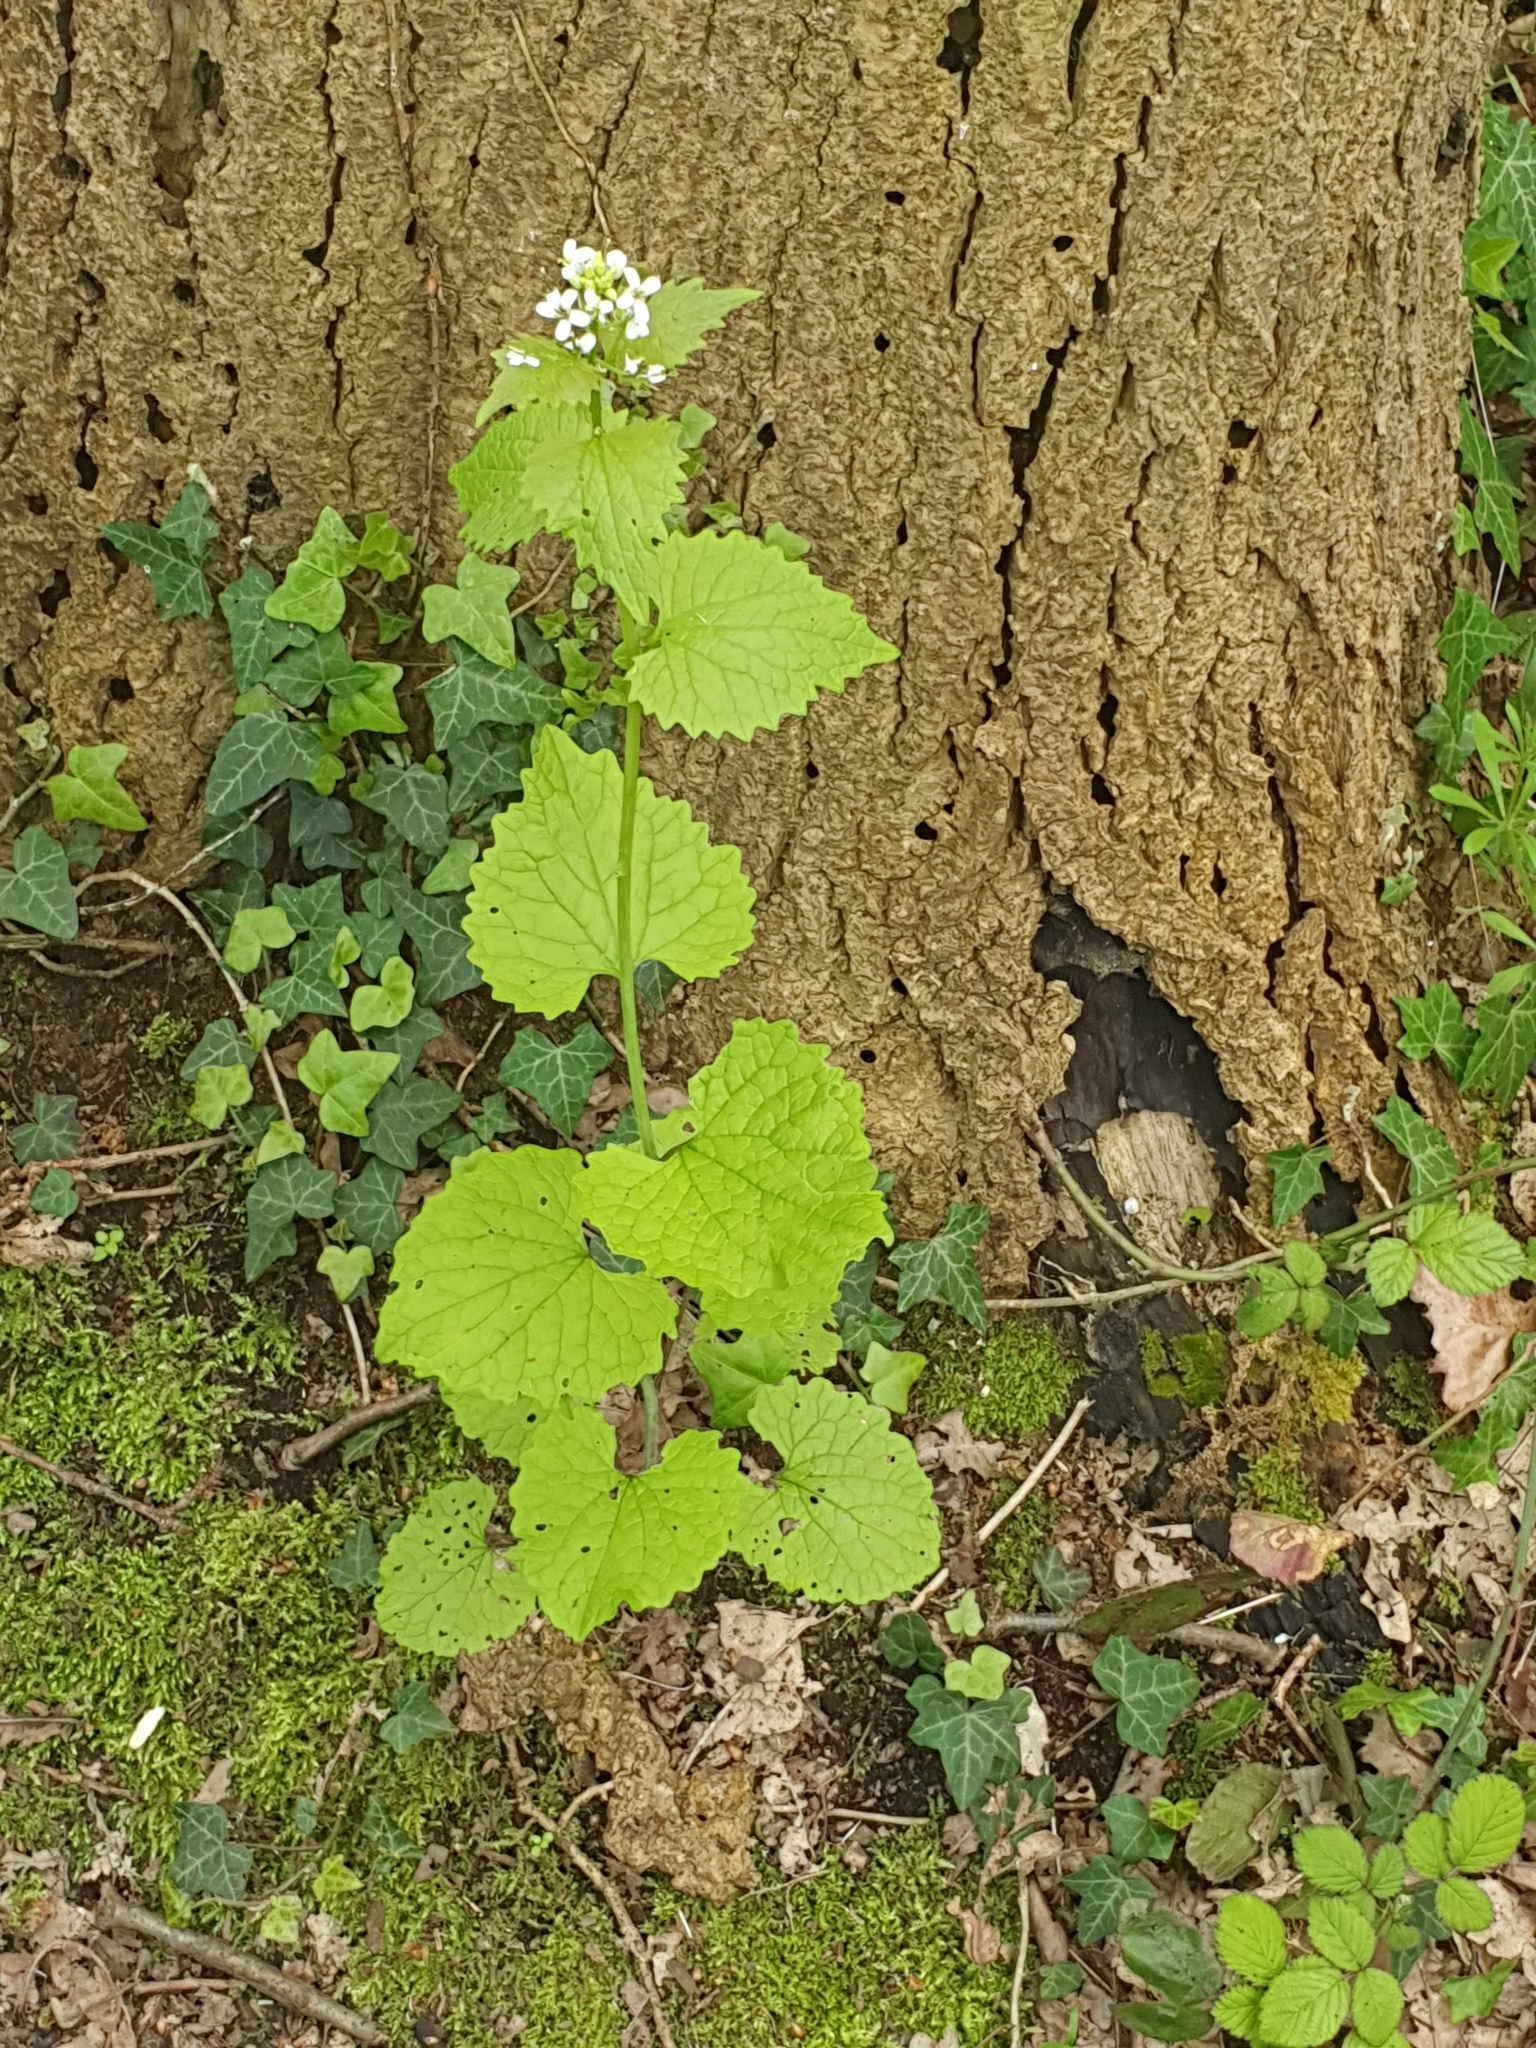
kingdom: Plantae
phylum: Tracheophyta
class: Magnoliopsida
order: Brassicales
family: Brassicaceae
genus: Alliaria
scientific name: Alliaria petiolata
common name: Garlic mustard
